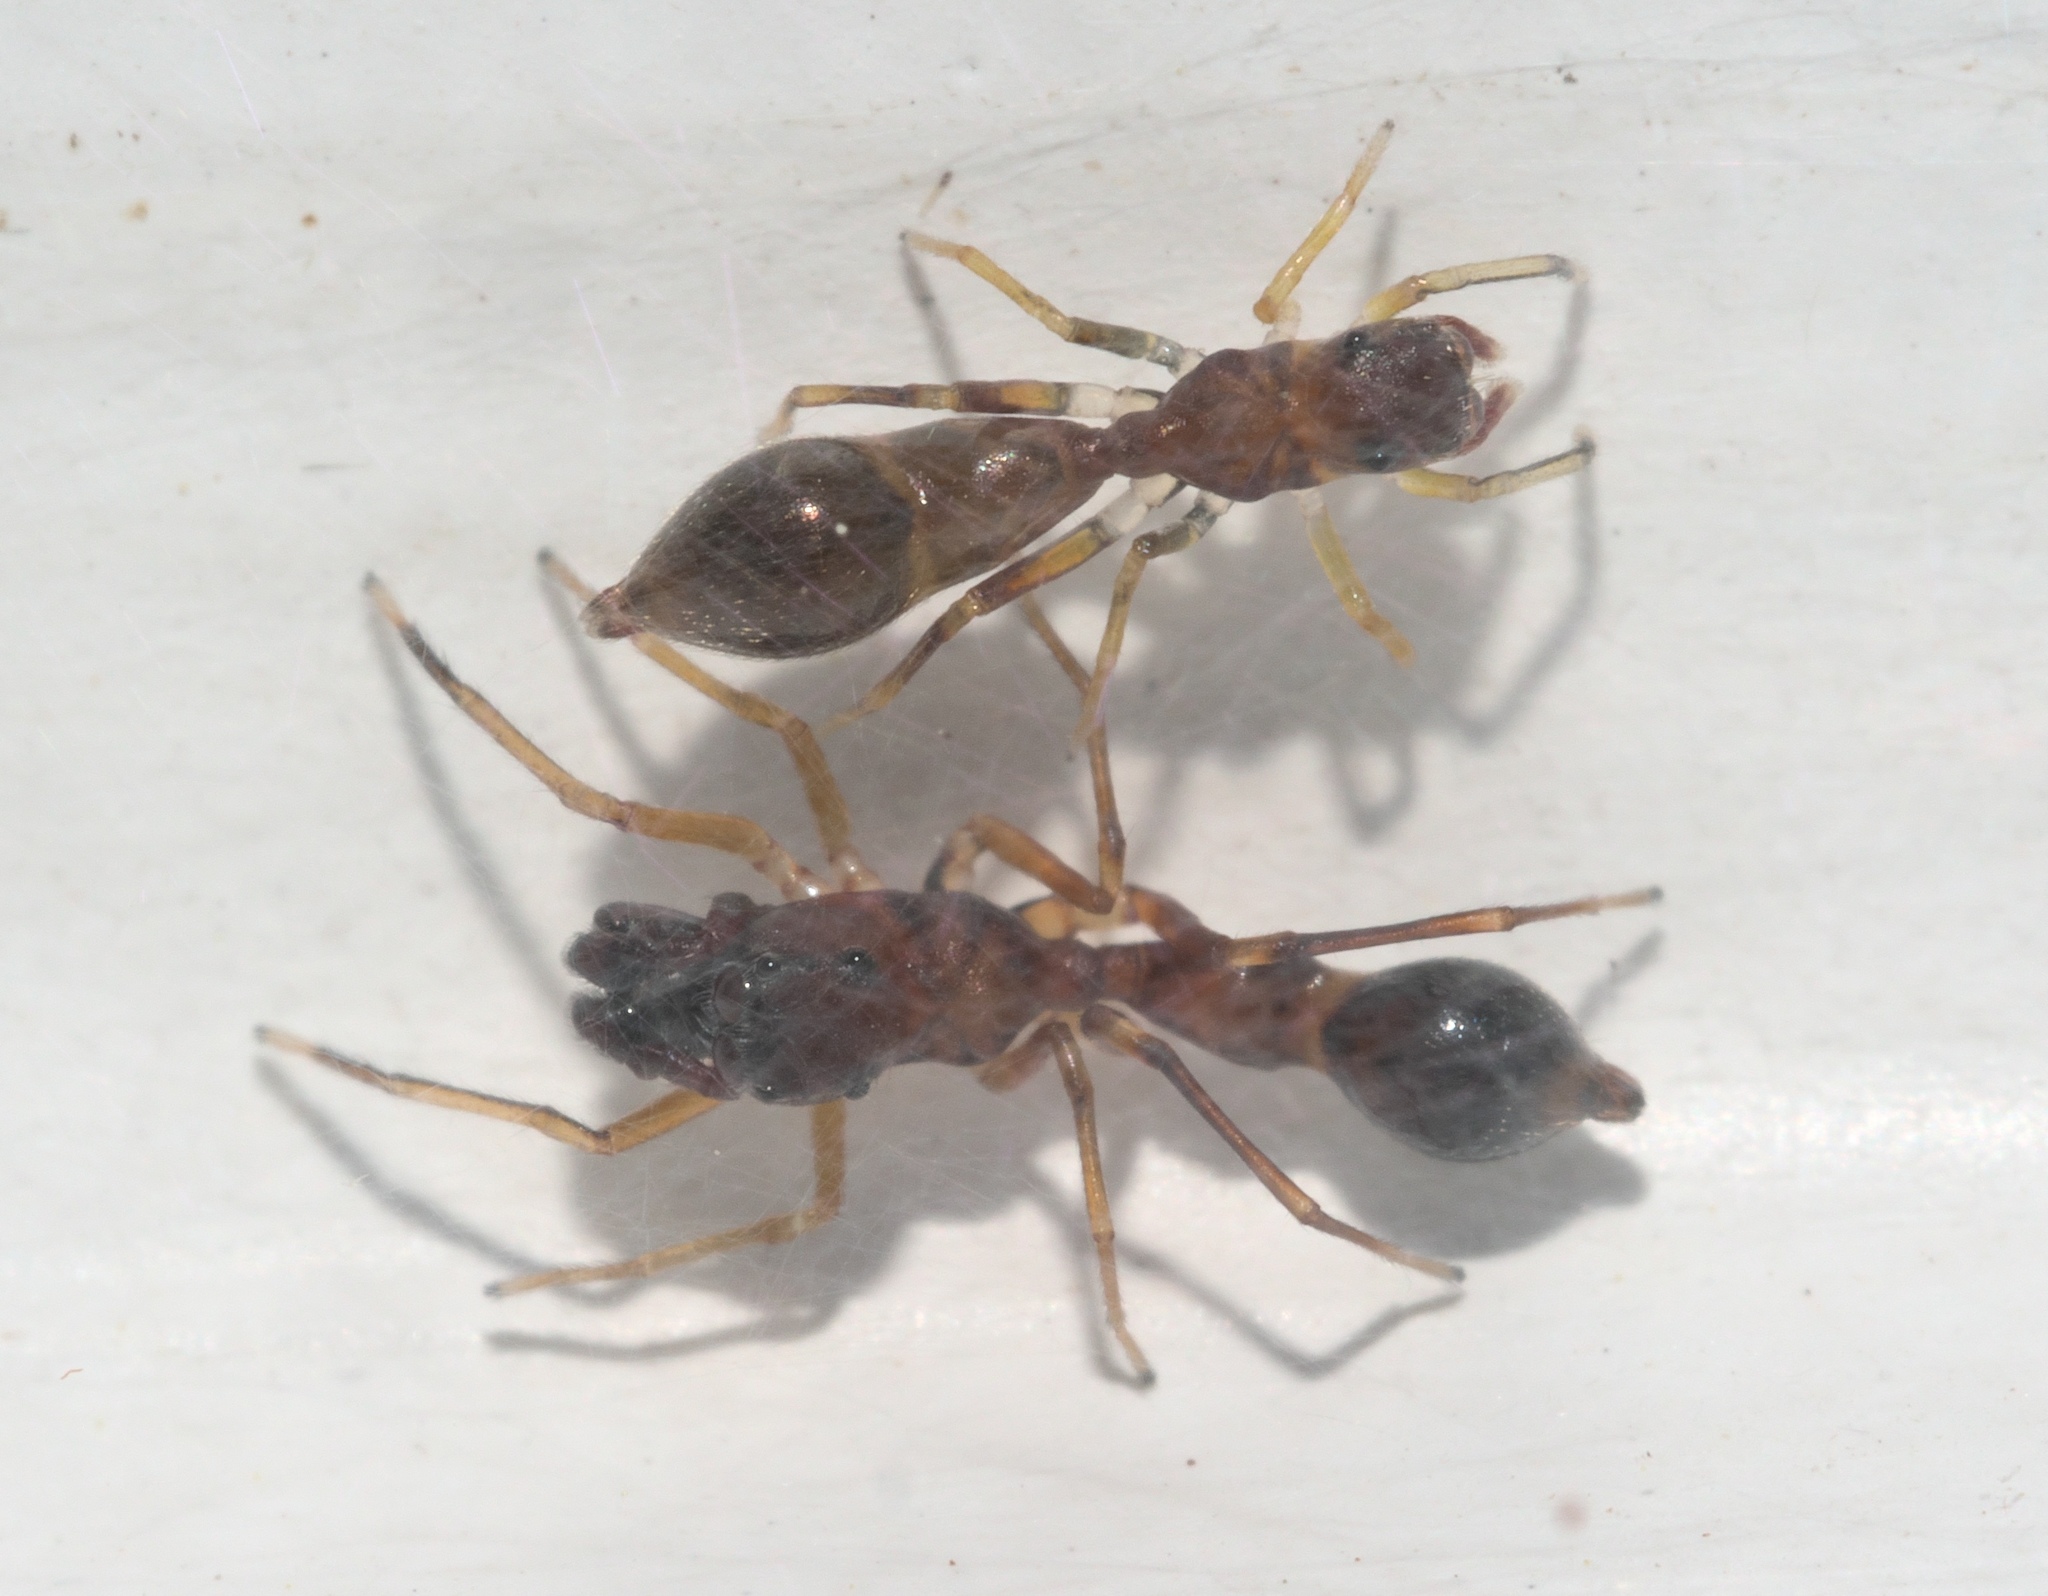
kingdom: Animalia
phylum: Arthropoda
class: Arachnida
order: Araneae
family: Salticidae
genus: Synemosyna
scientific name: Synemosyna formica
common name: Slender ant-mimic jumping spider
